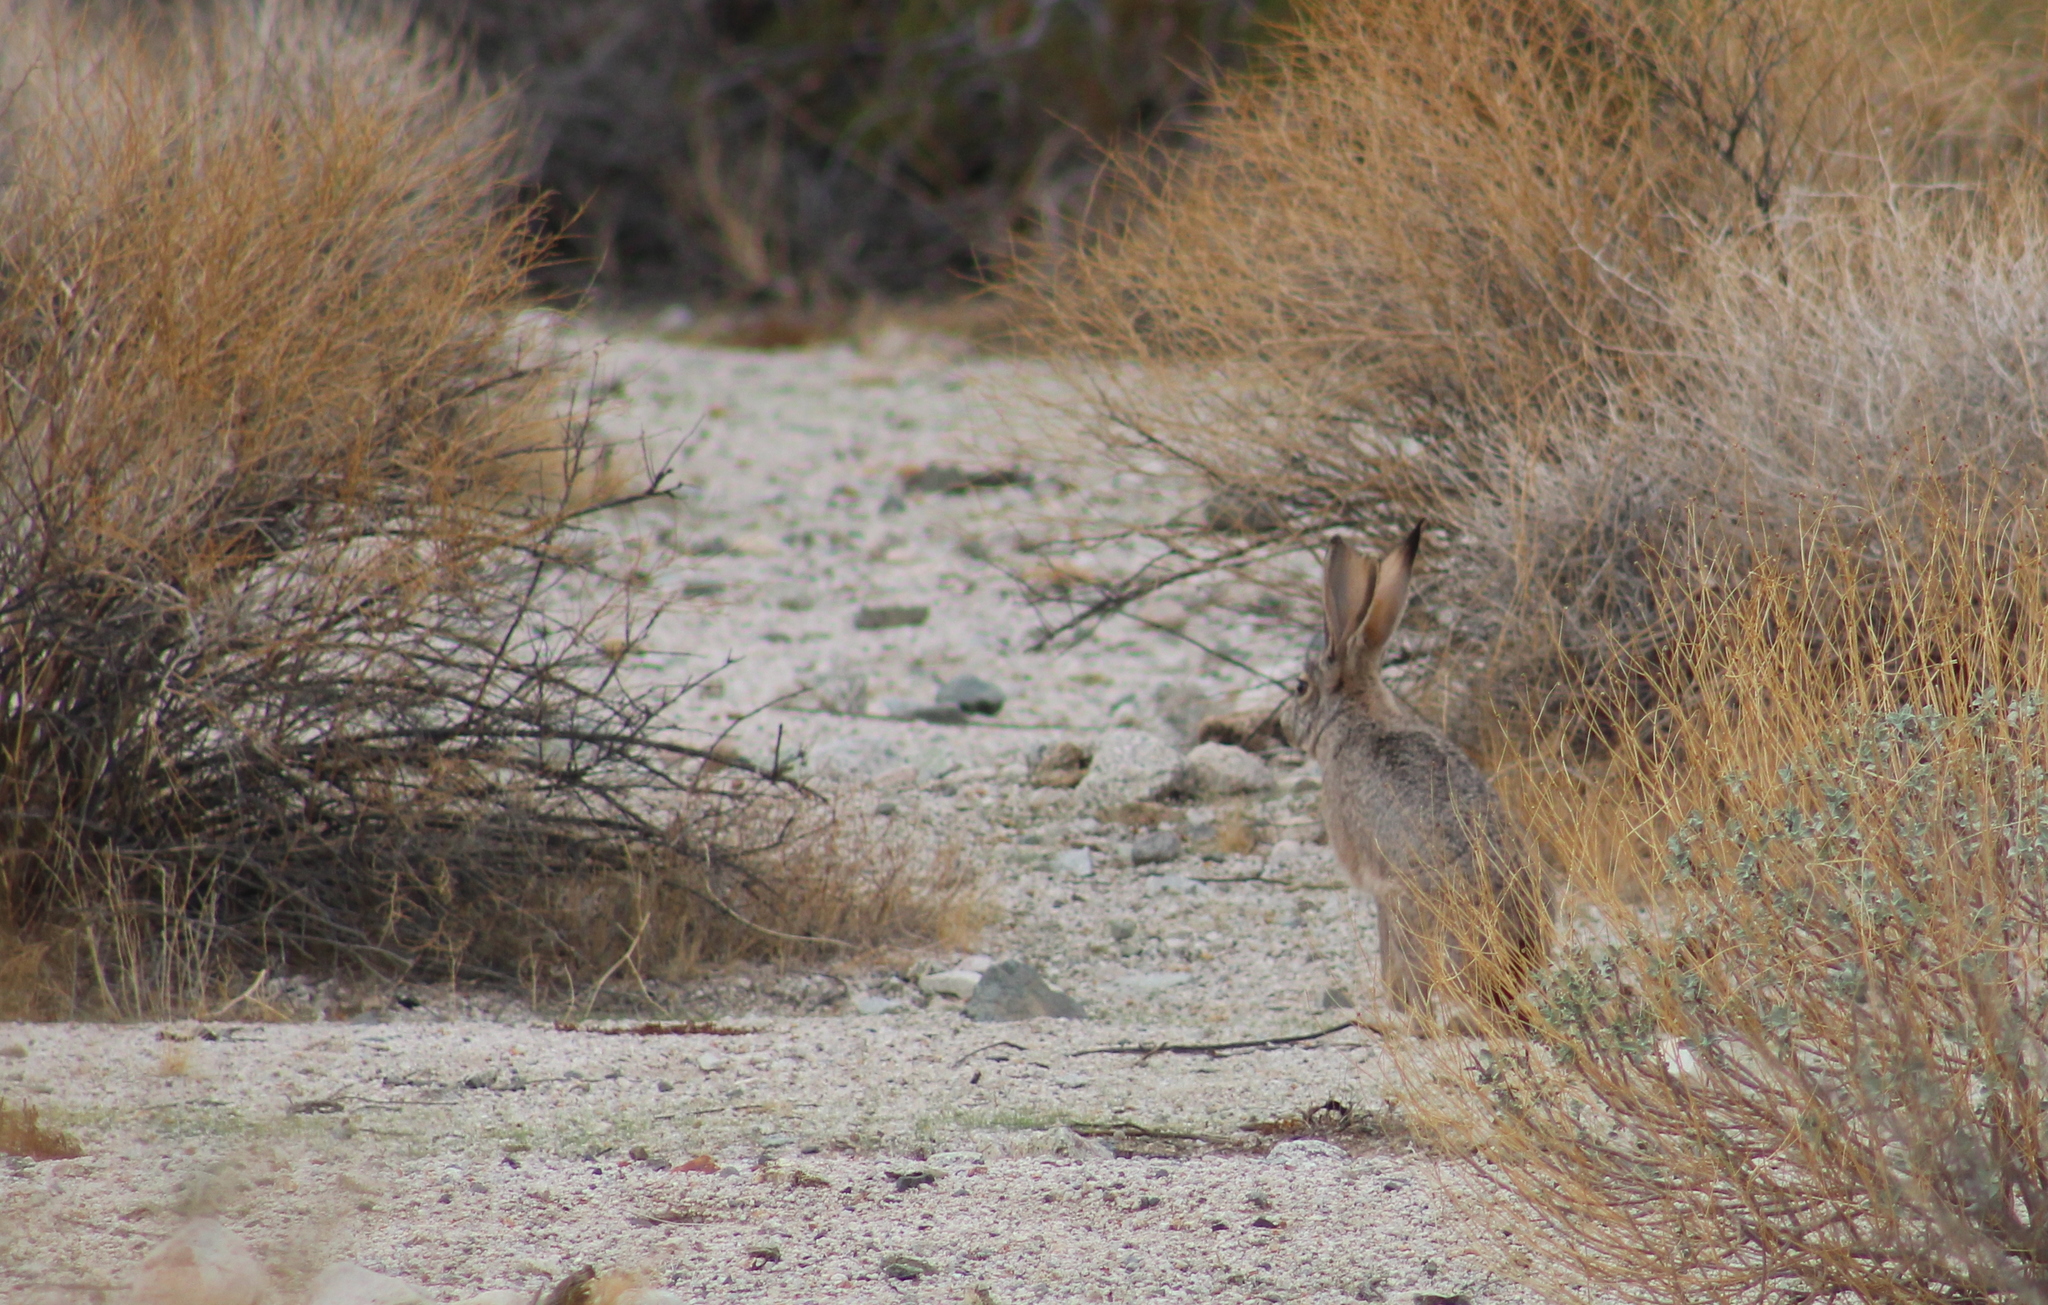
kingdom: Animalia
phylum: Chordata
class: Mammalia
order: Lagomorpha
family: Leporidae
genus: Lepus
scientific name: Lepus californicus
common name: Black-tailed jackrabbit
